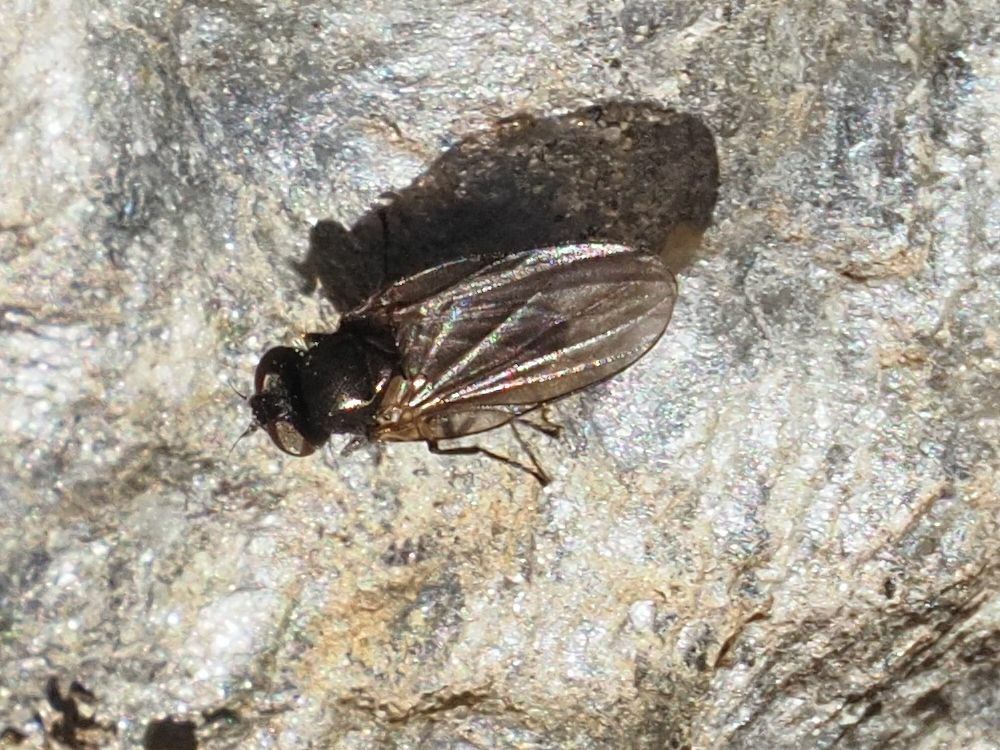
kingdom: Animalia
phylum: Arthropoda
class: Insecta
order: Diptera
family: Lonchaeidae
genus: Earomyia
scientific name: Earomyia lonchaeoides
